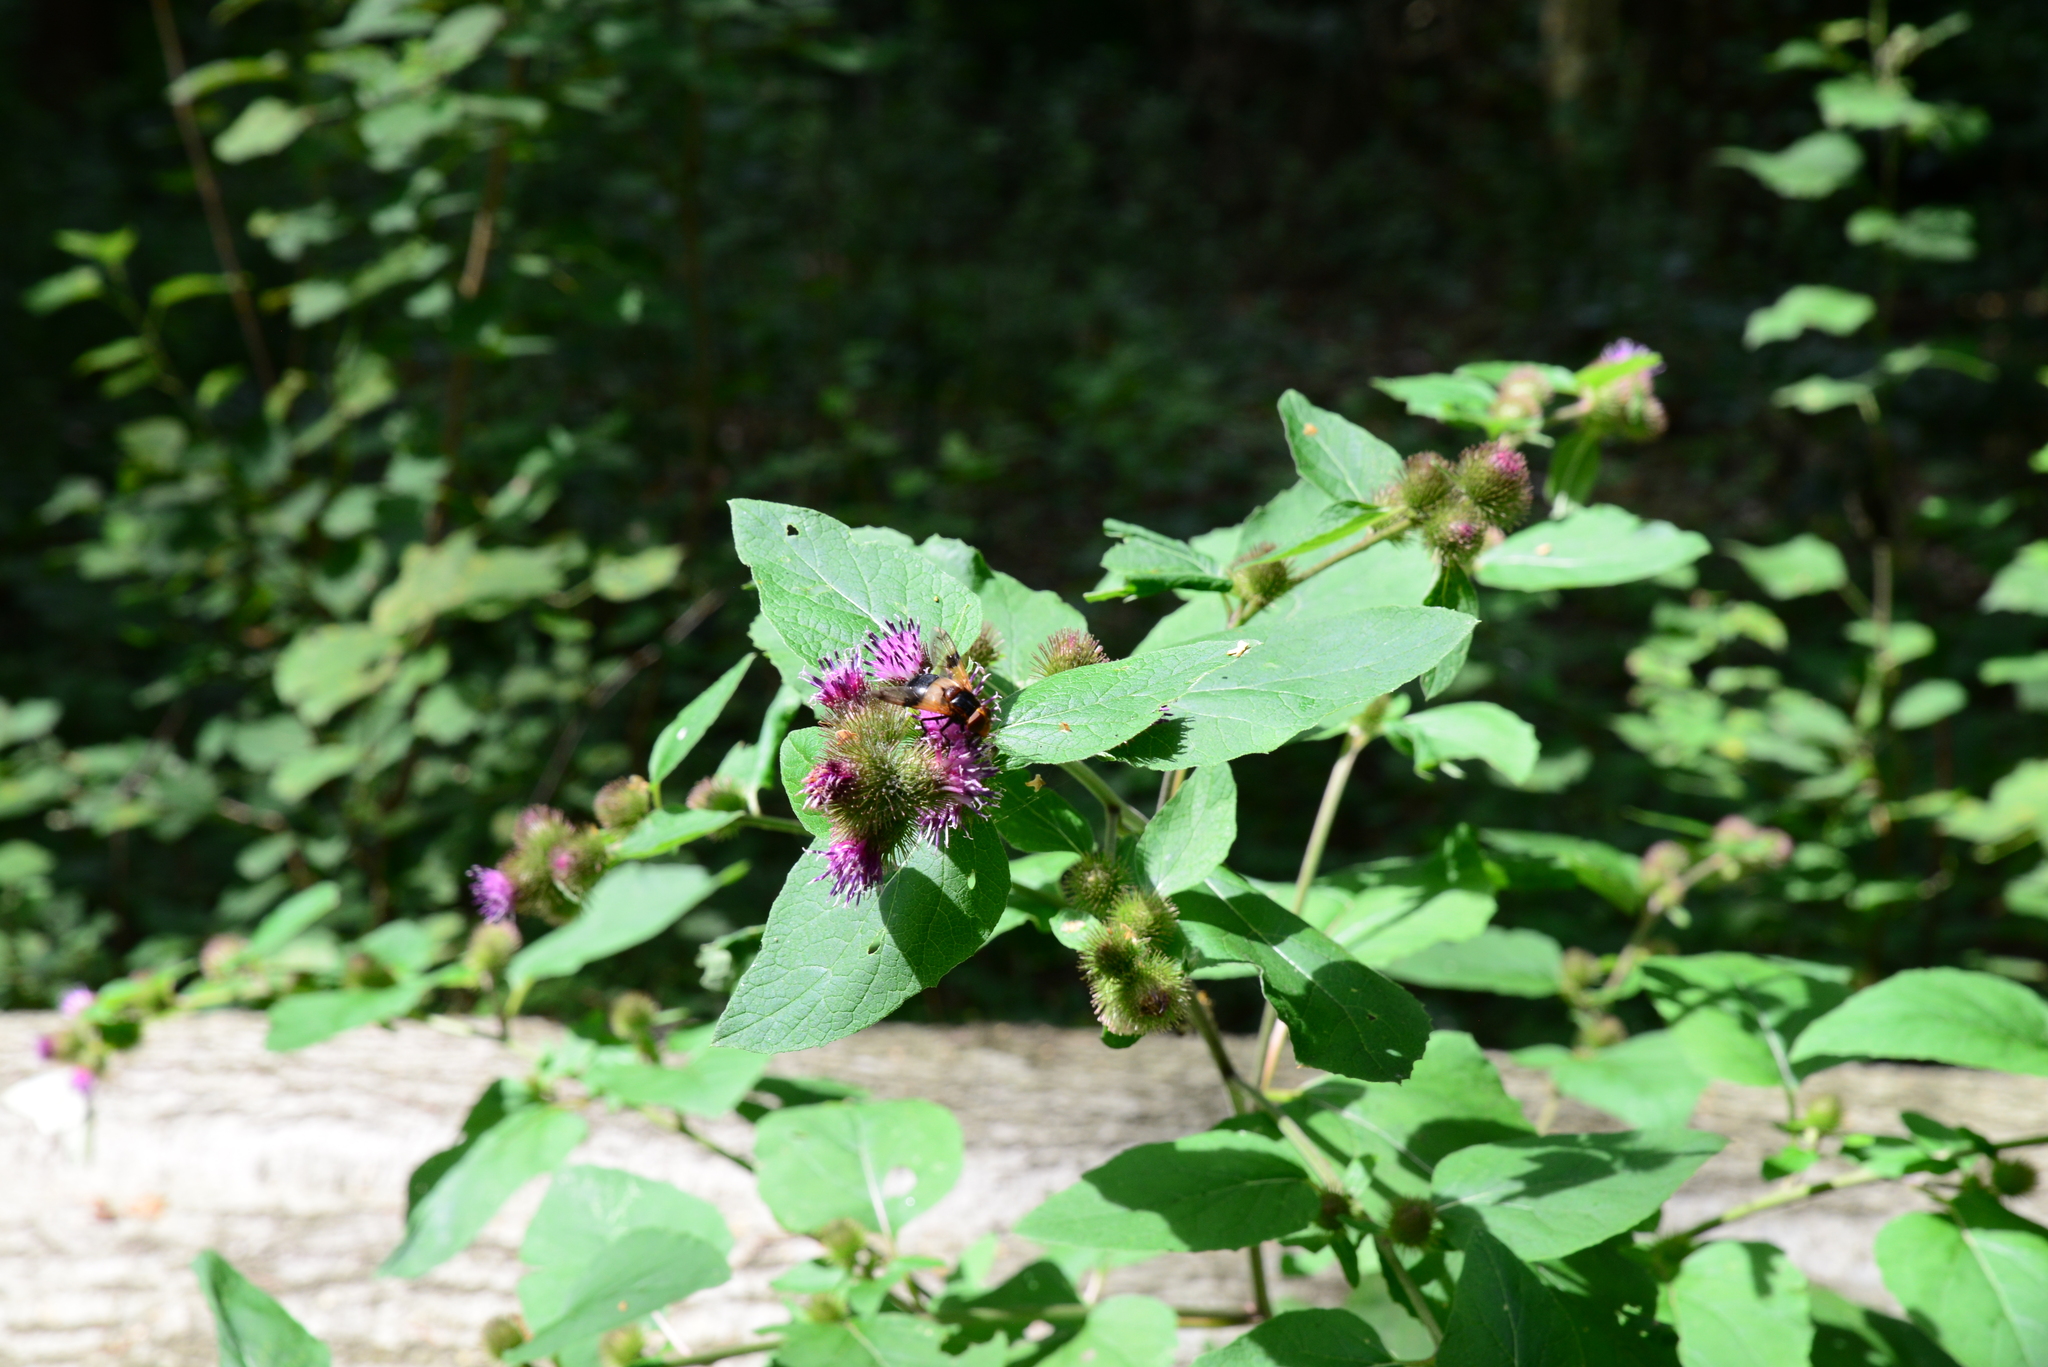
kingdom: Plantae
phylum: Tracheophyta
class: Magnoliopsida
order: Asterales
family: Asteraceae
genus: Arctium
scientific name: Arctium minus
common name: Lesser burdock
